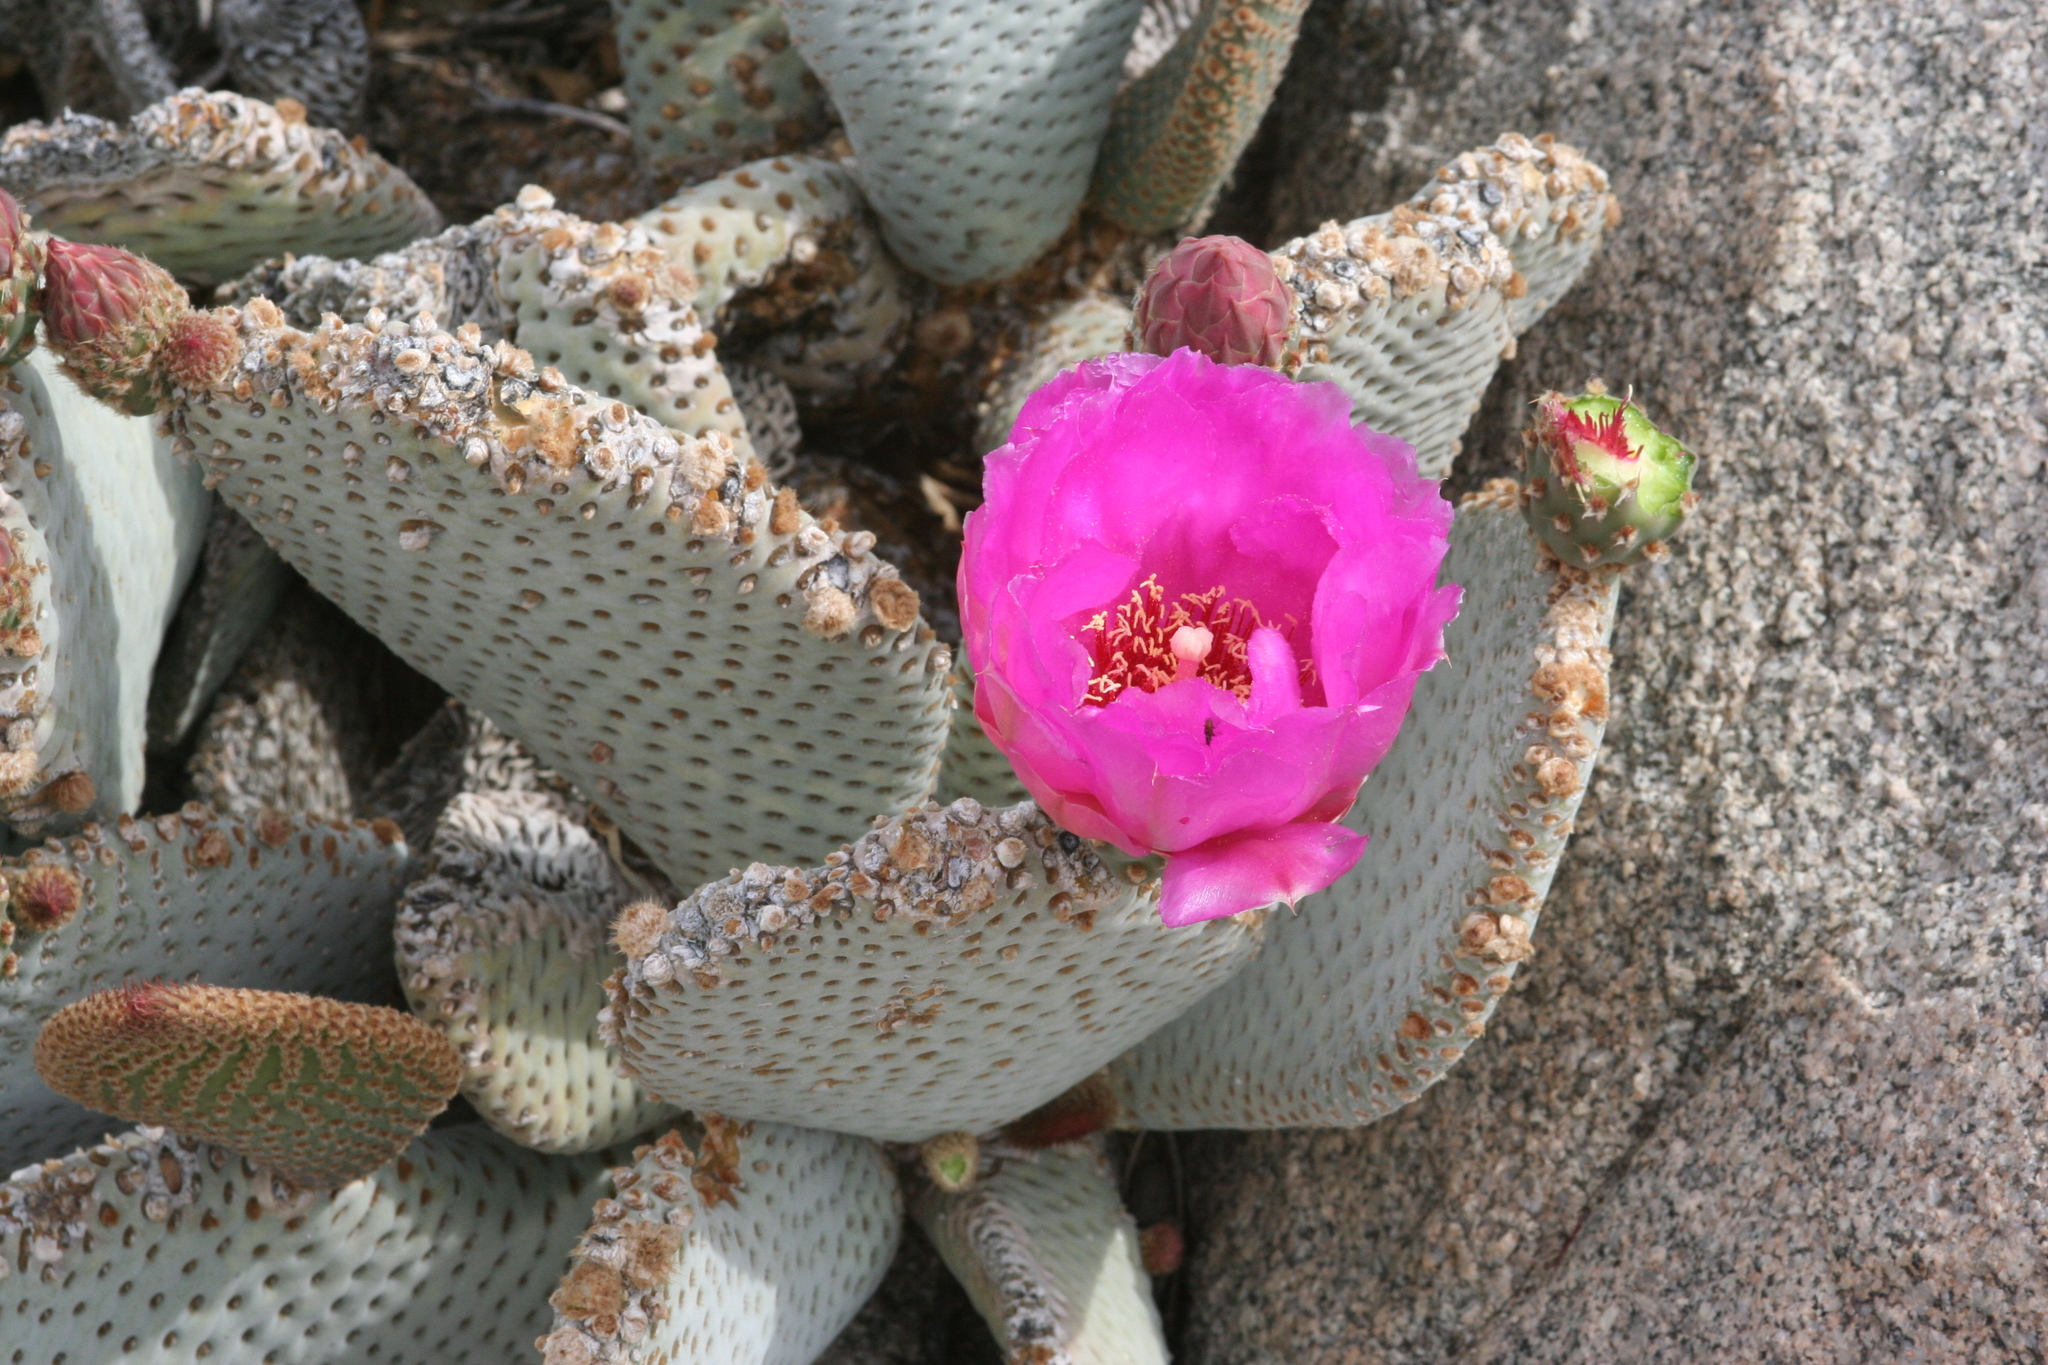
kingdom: Plantae
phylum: Tracheophyta
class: Magnoliopsida
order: Caryophyllales
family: Cactaceae
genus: Opuntia
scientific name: Opuntia basilaris
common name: Beavertail prickly-pear
